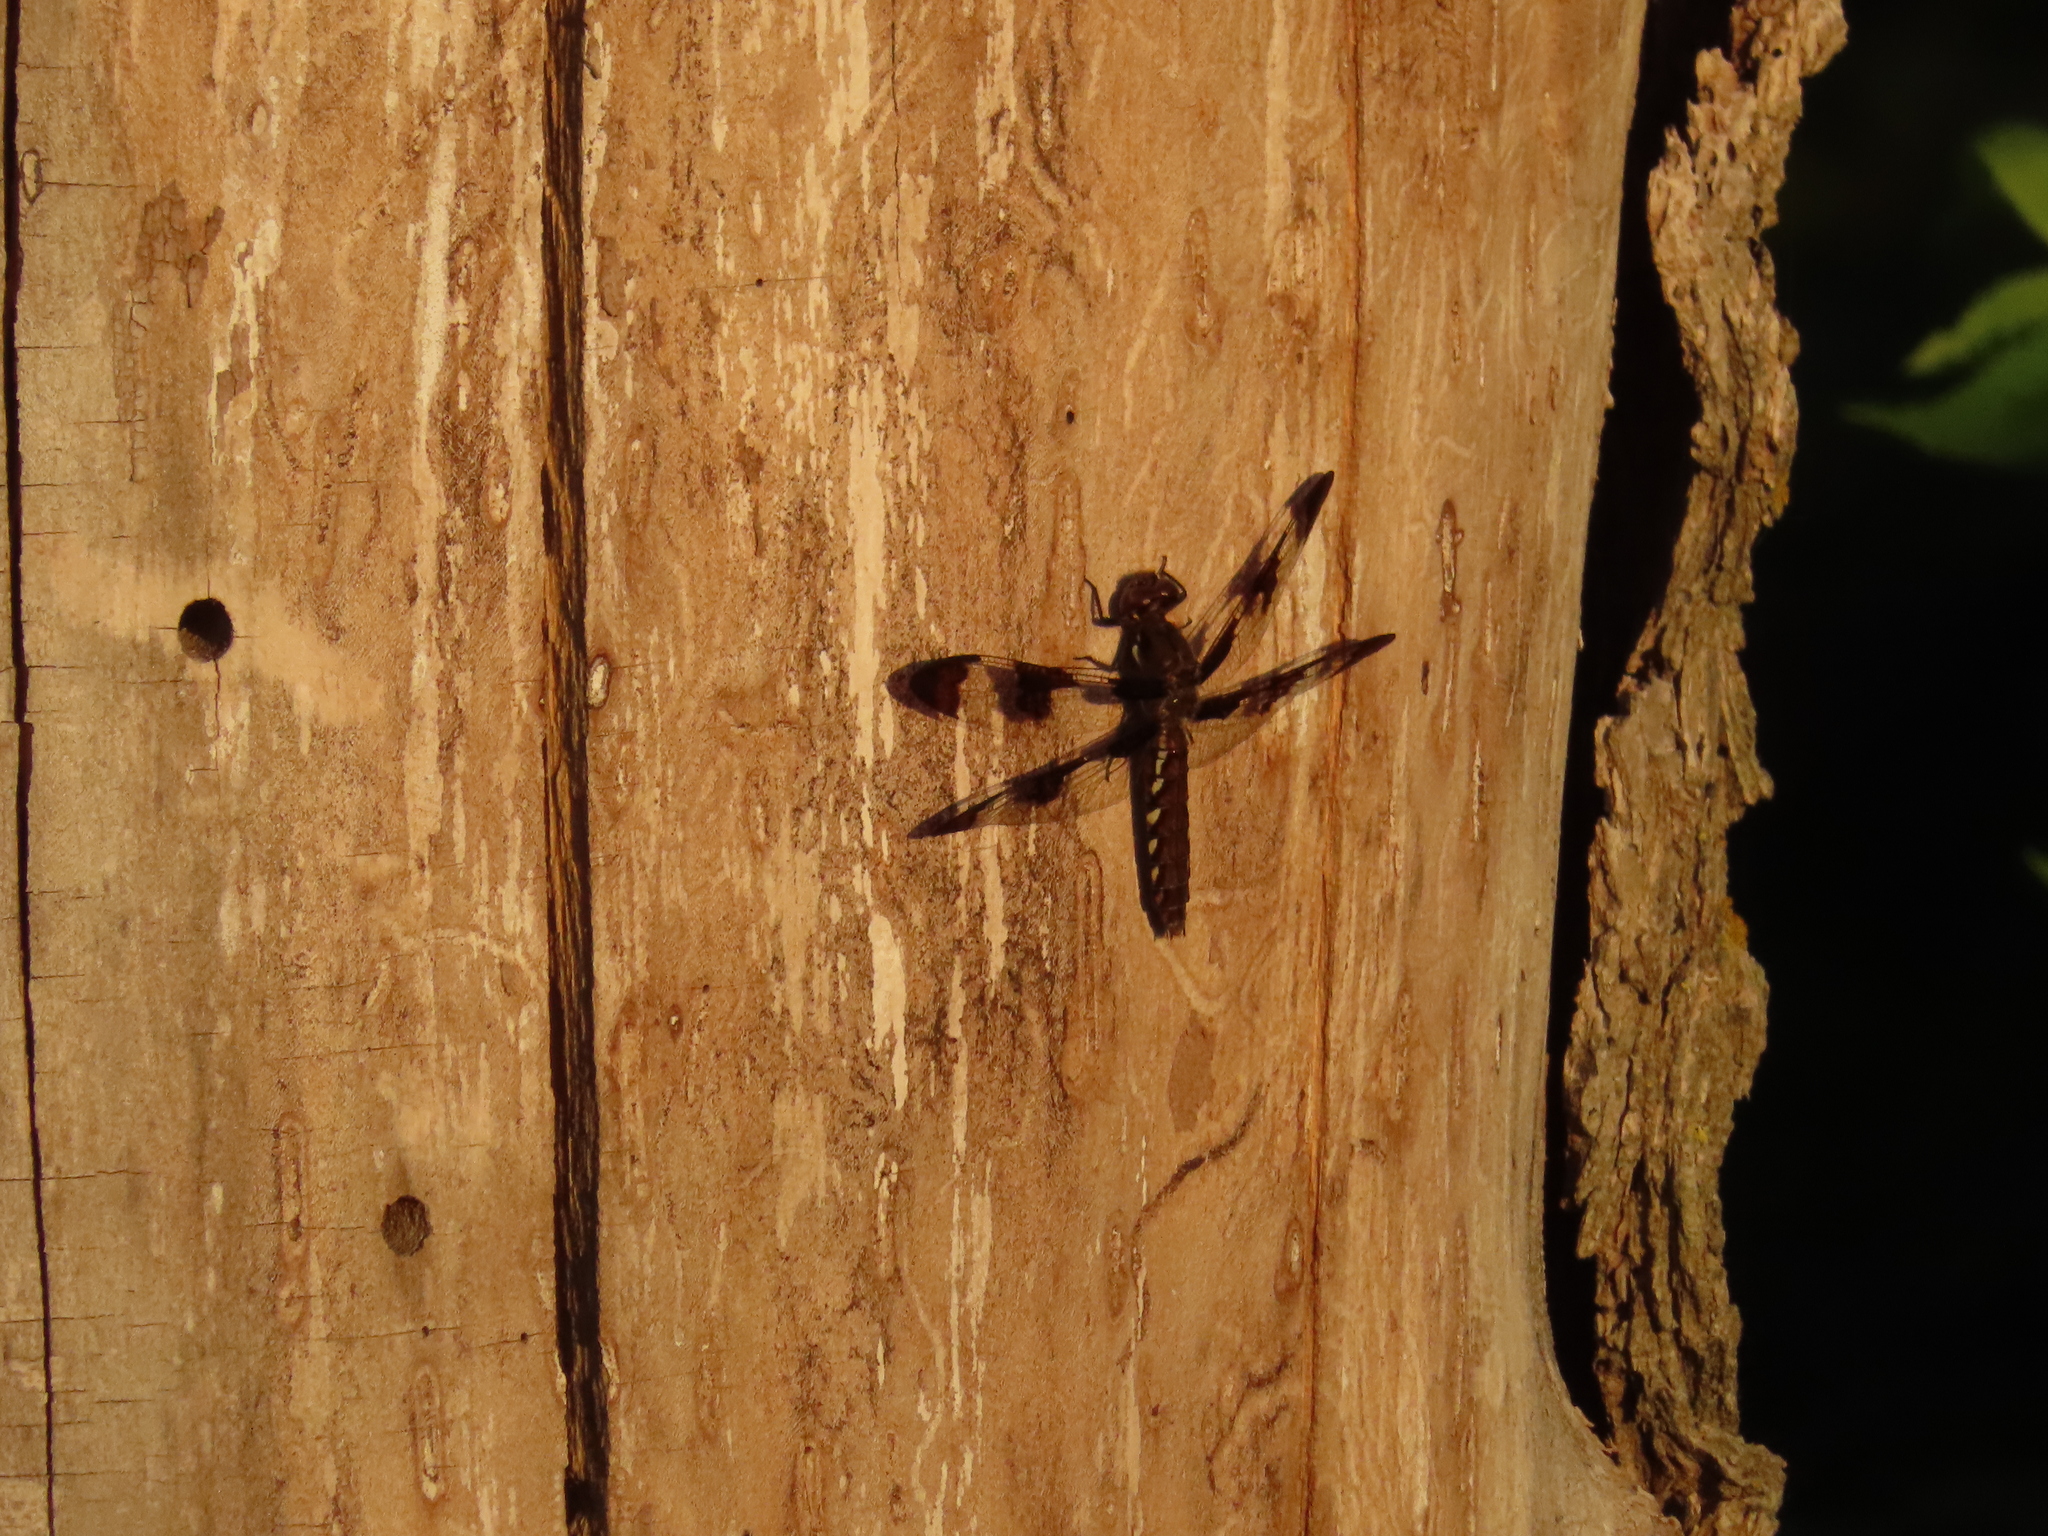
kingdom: Animalia
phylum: Arthropoda
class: Insecta
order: Odonata
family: Libellulidae
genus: Plathemis
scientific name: Plathemis lydia
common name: Common whitetail
